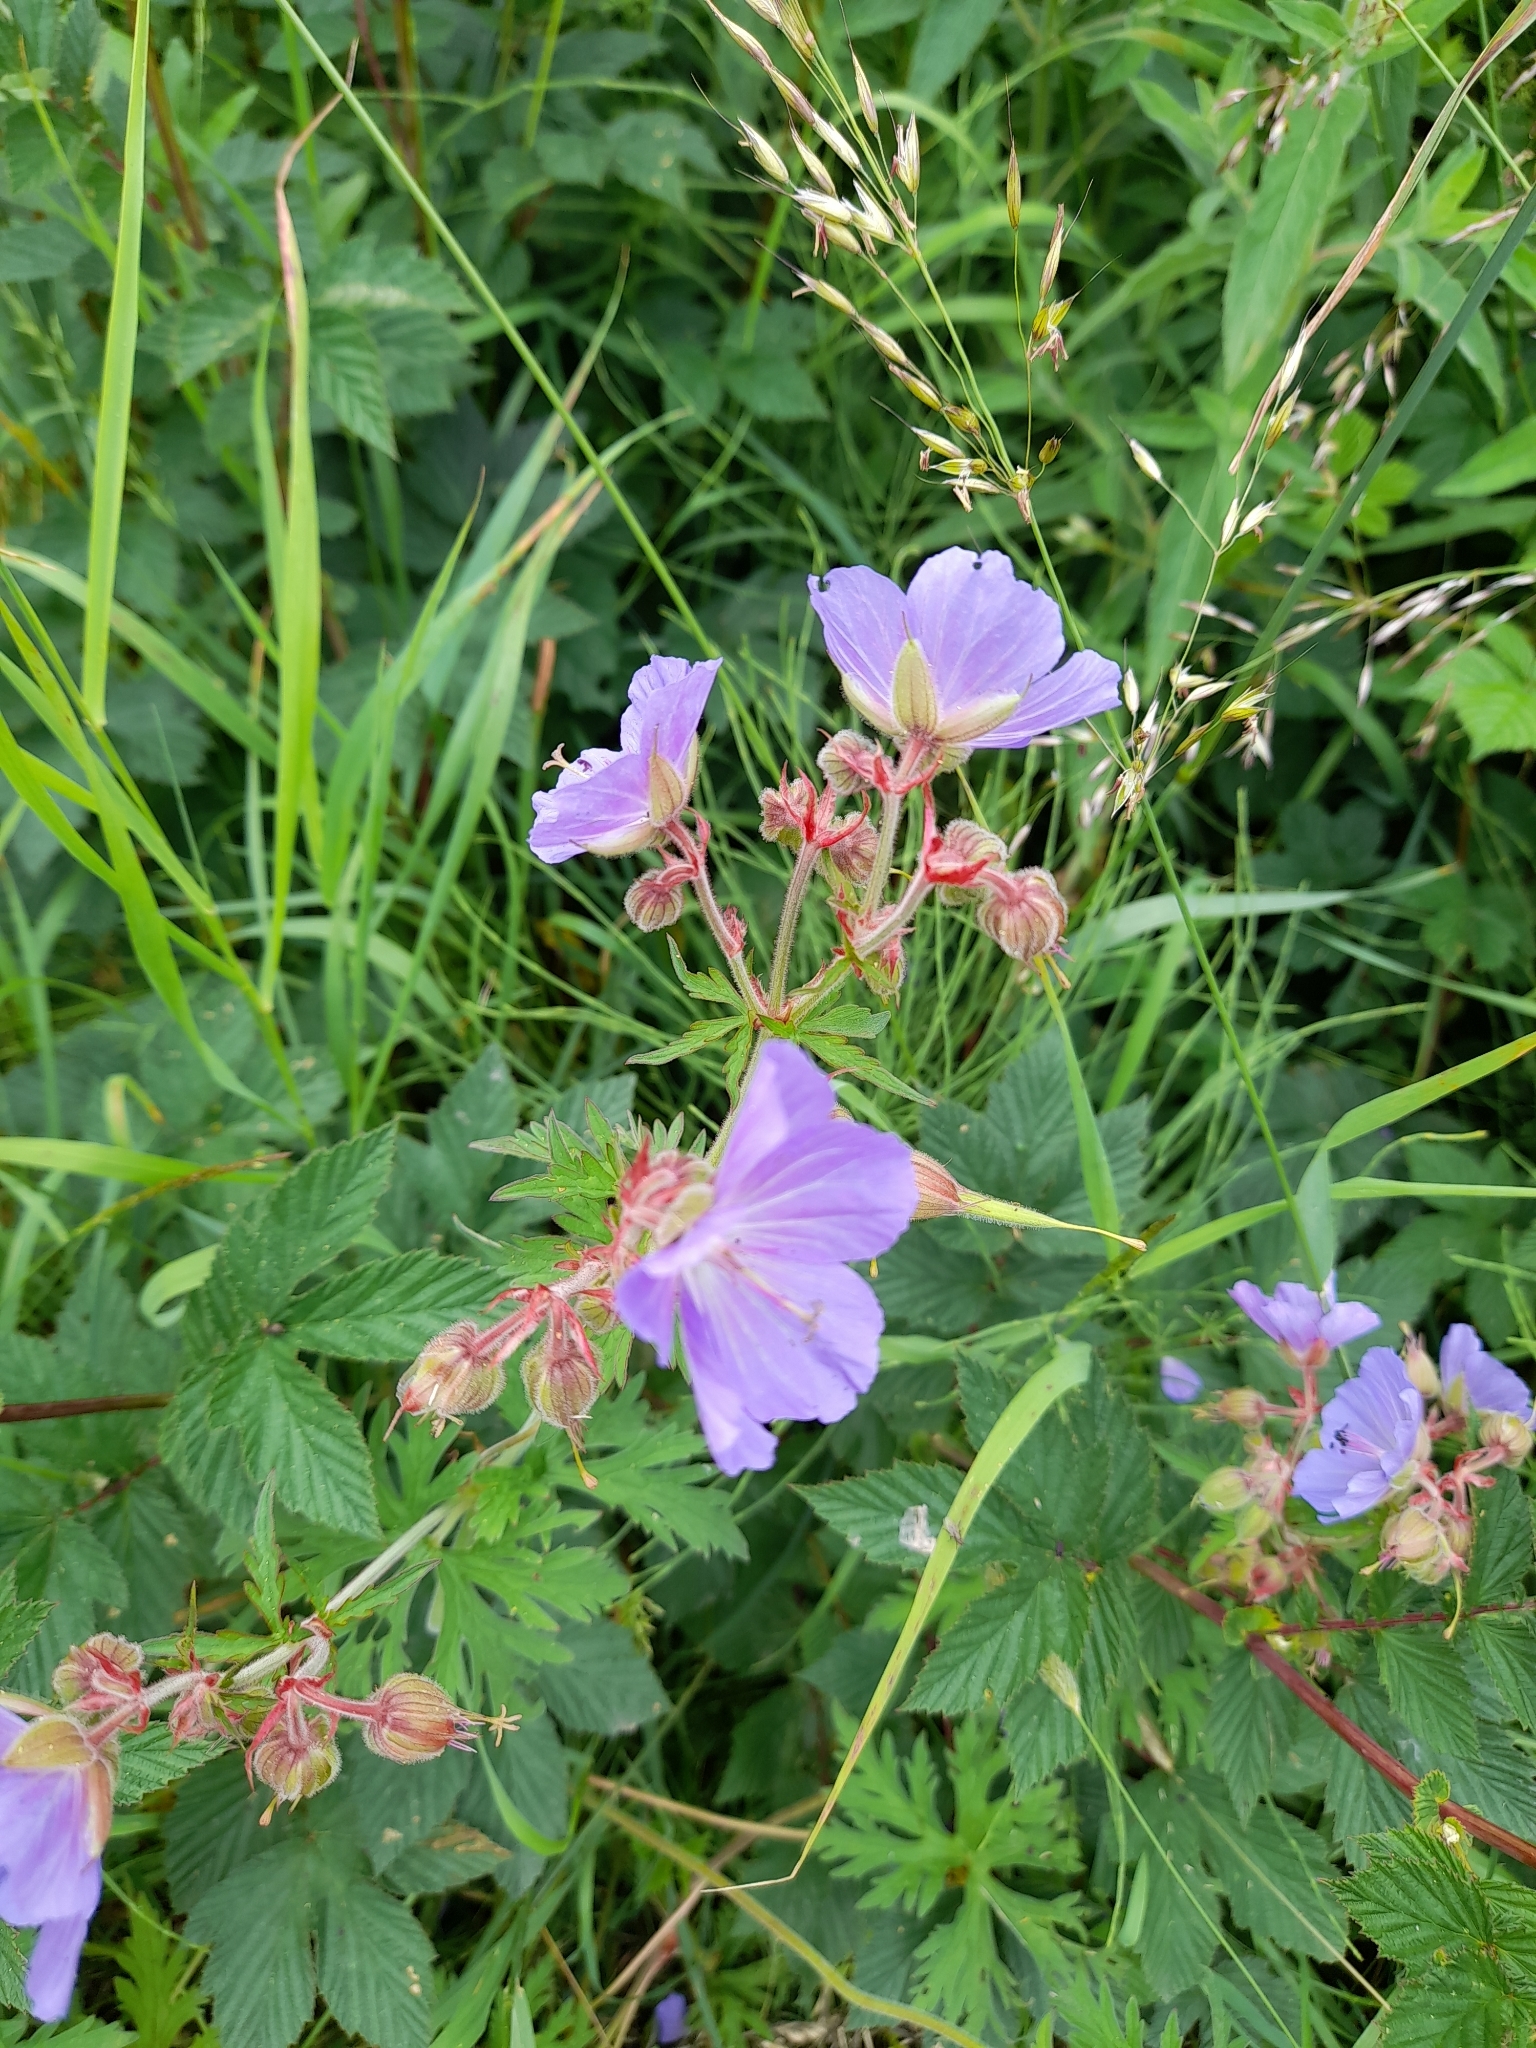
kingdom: Plantae
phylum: Tracheophyta
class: Magnoliopsida
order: Geraniales
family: Geraniaceae
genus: Geranium
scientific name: Geranium pratense
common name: Meadow crane's-bill
